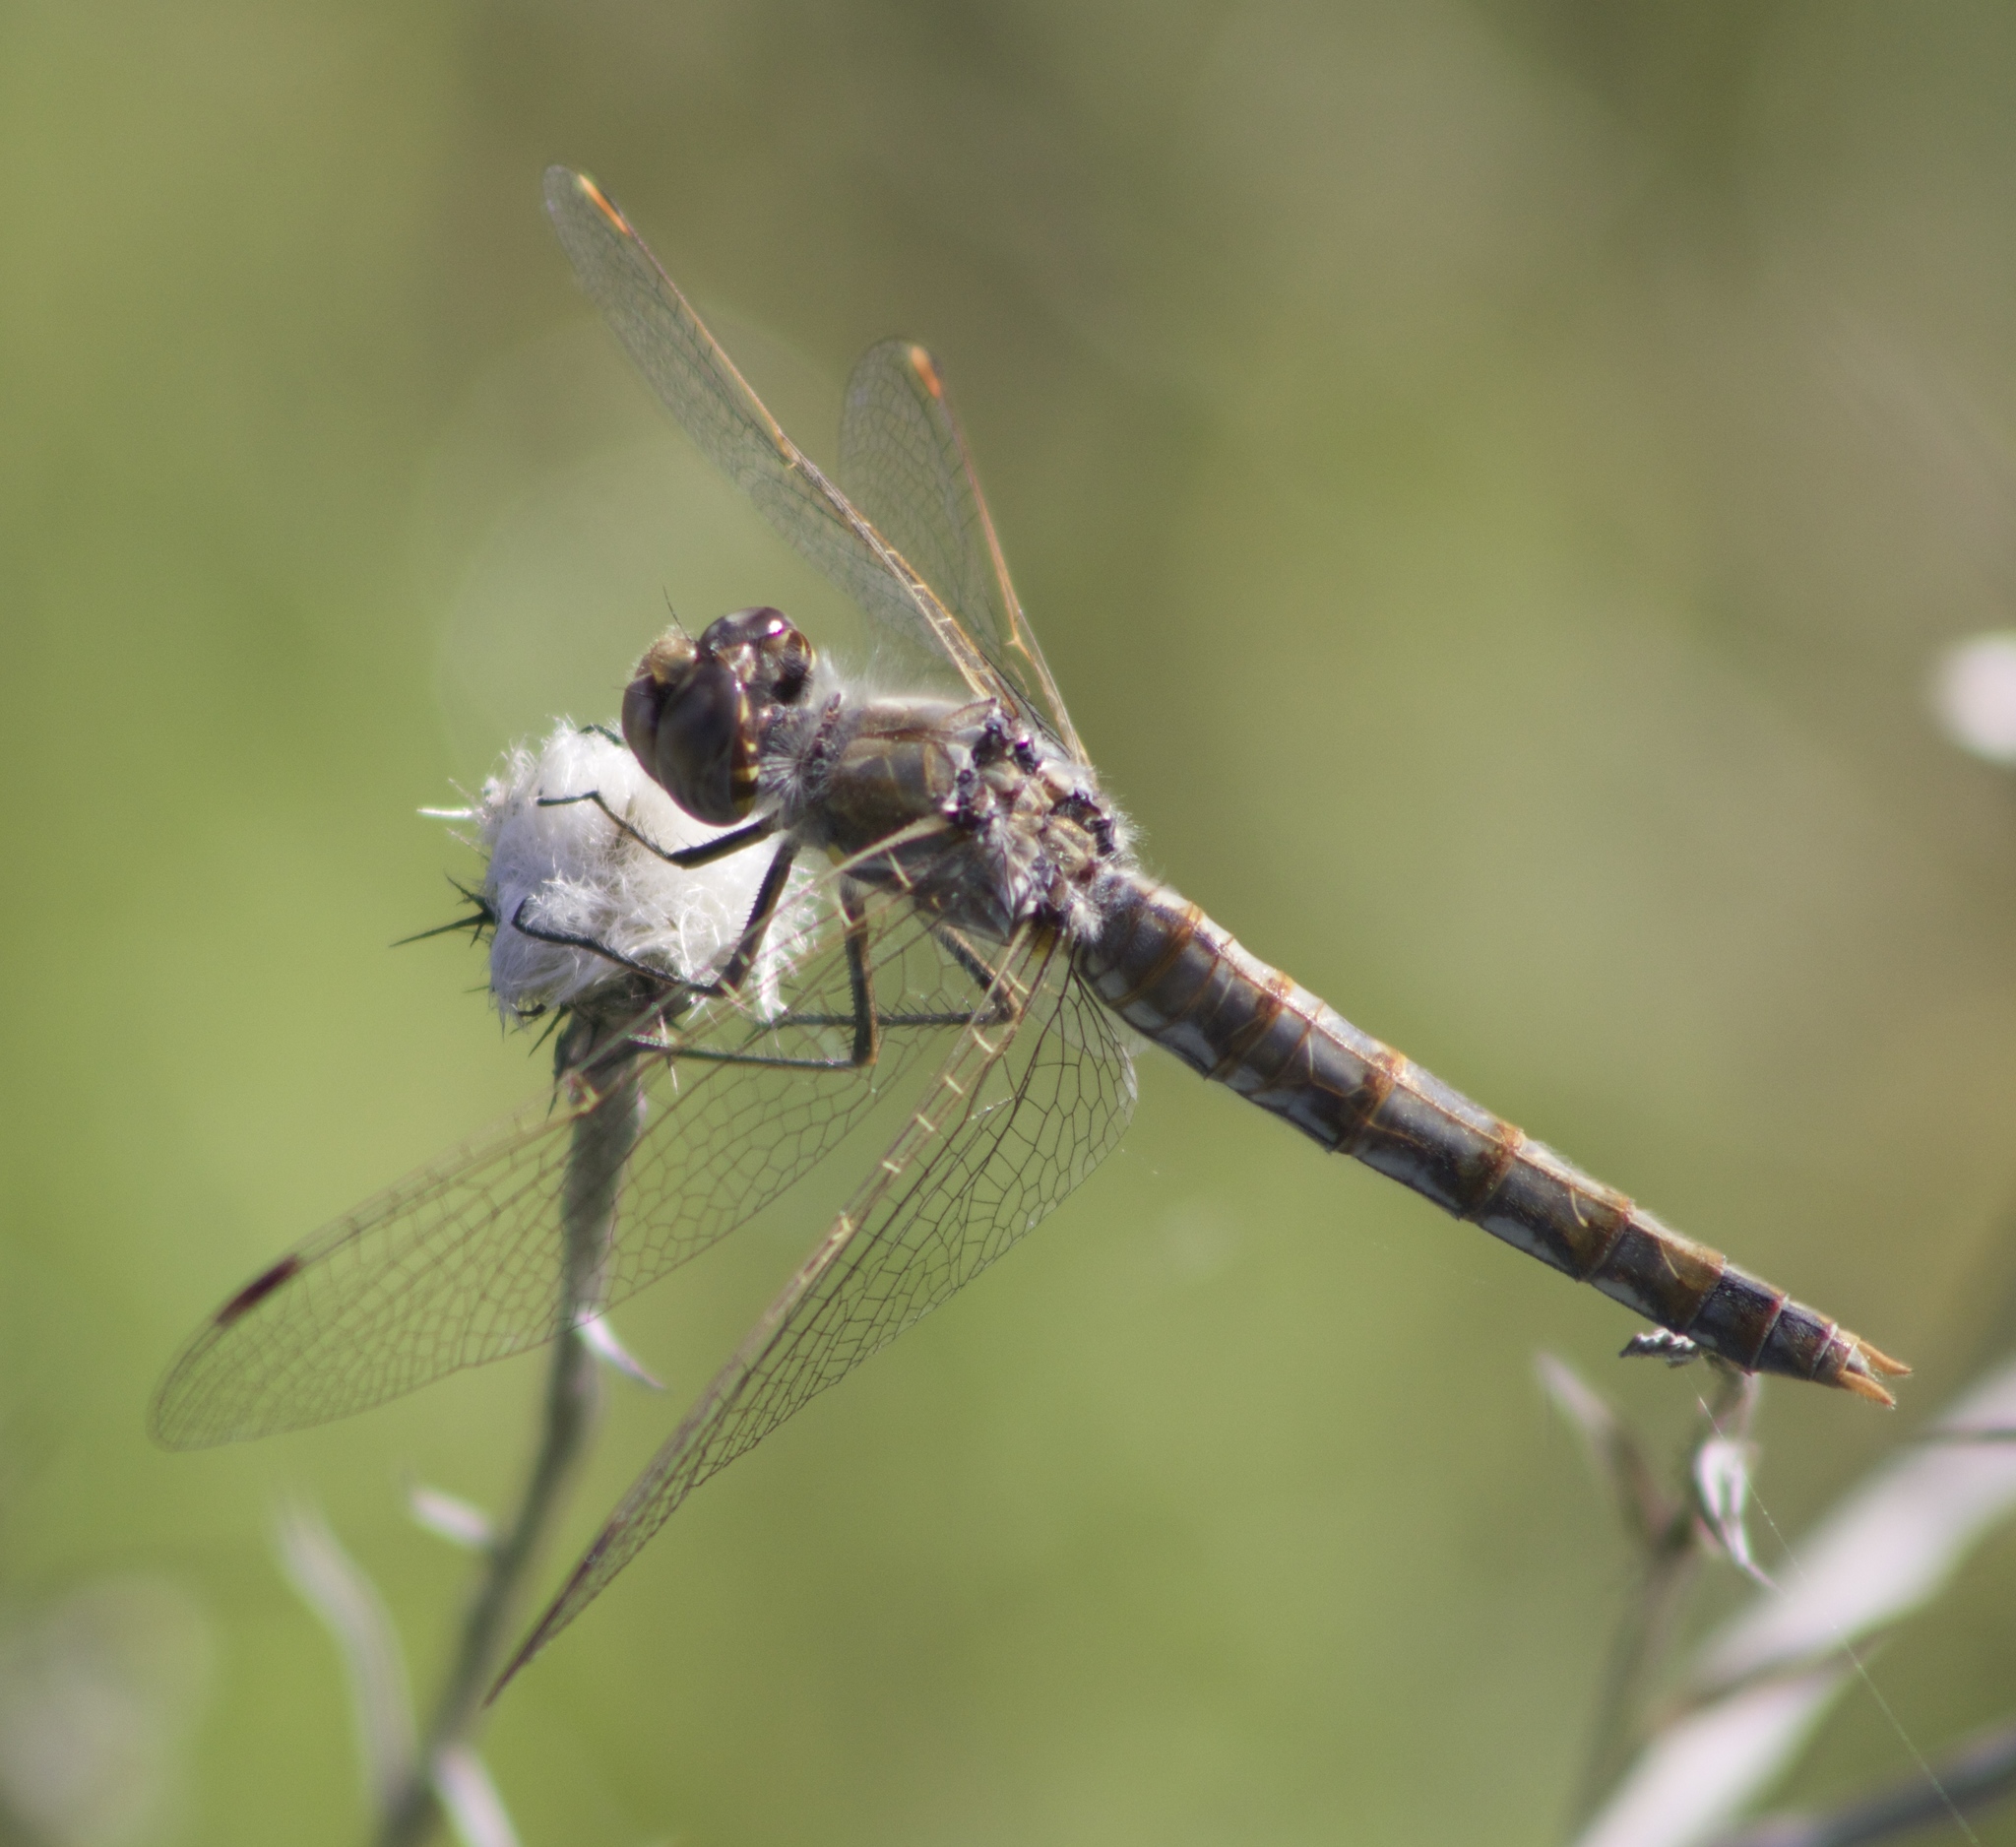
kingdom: Animalia
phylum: Arthropoda
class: Insecta
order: Odonata
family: Libellulidae
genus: Sympetrum
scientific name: Sympetrum corruptum
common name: Variegated meadowhawk
